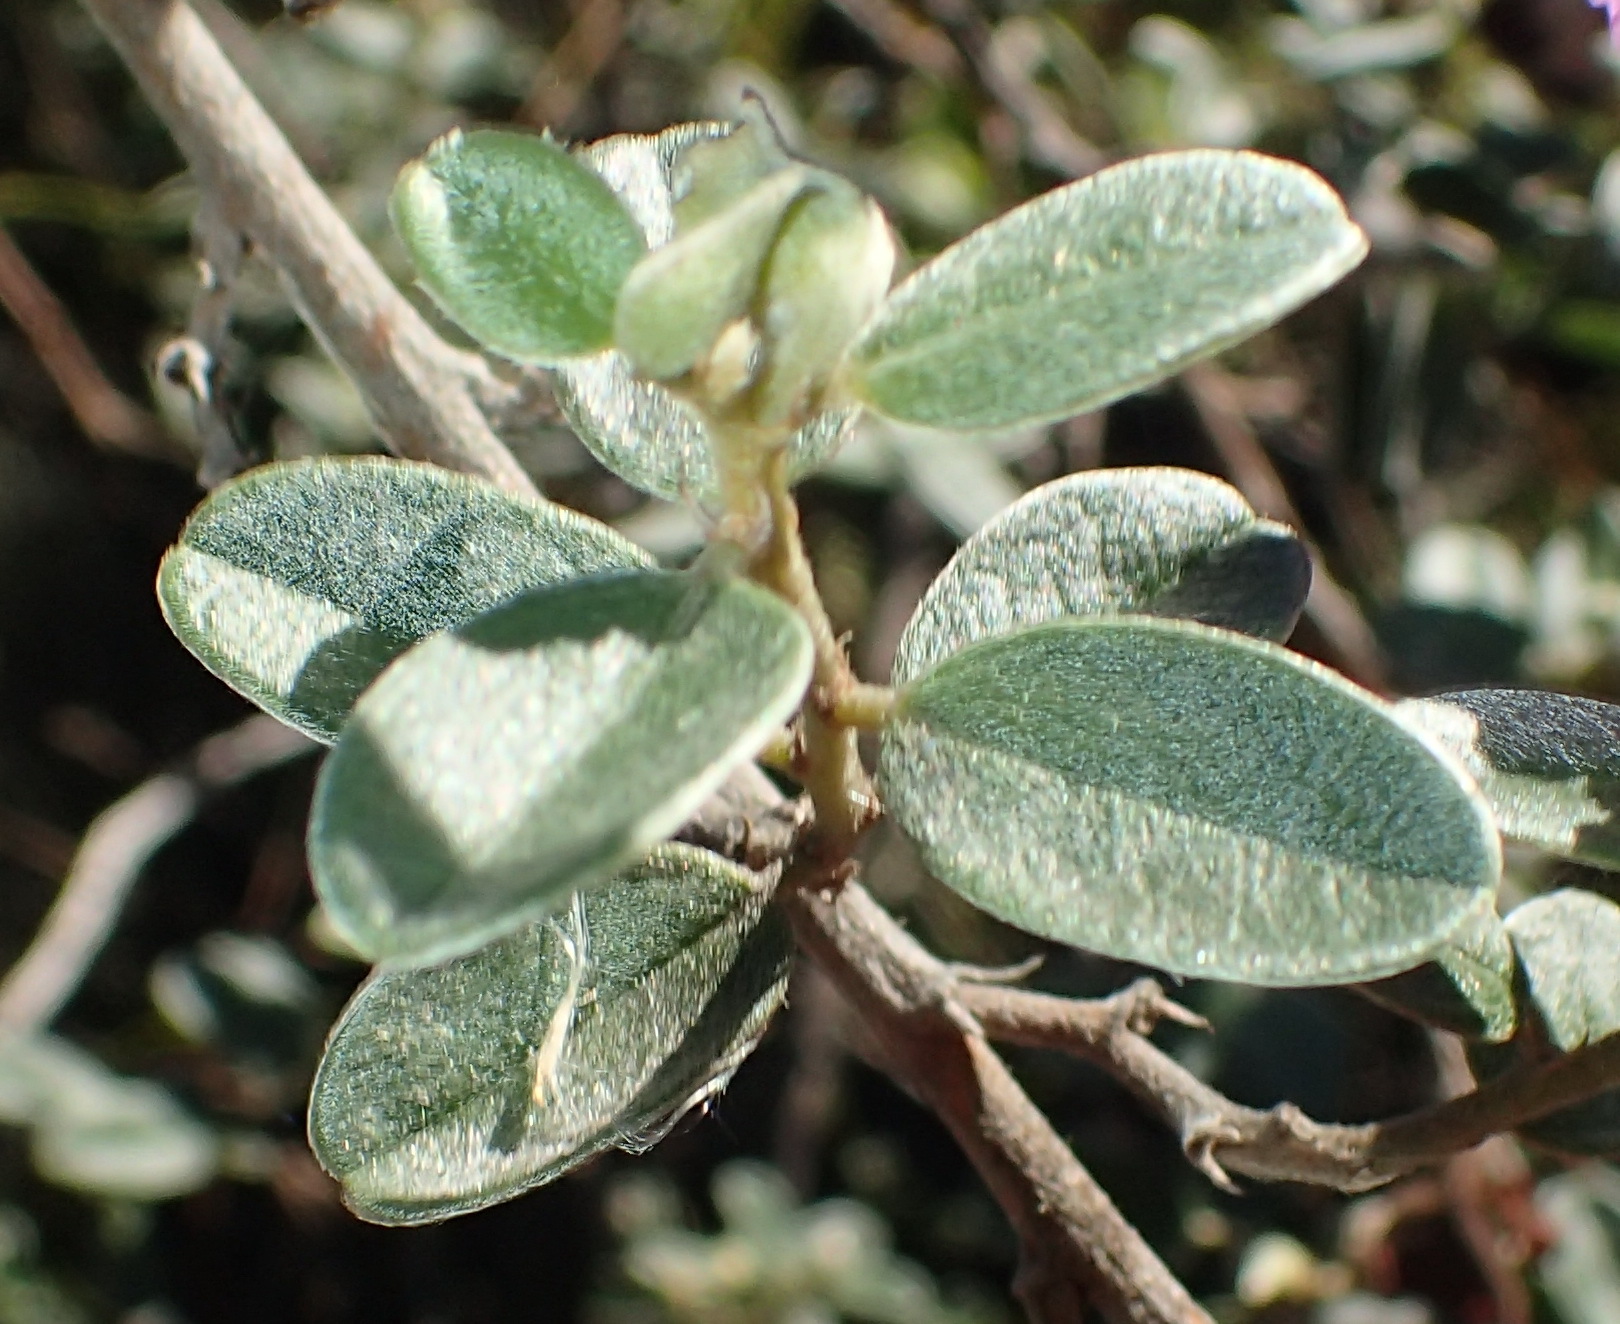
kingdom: Plantae
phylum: Tracheophyta
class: Magnoliopsida
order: Fabales
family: Fabaceae
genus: Podalyria
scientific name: Podalyria burchellii
